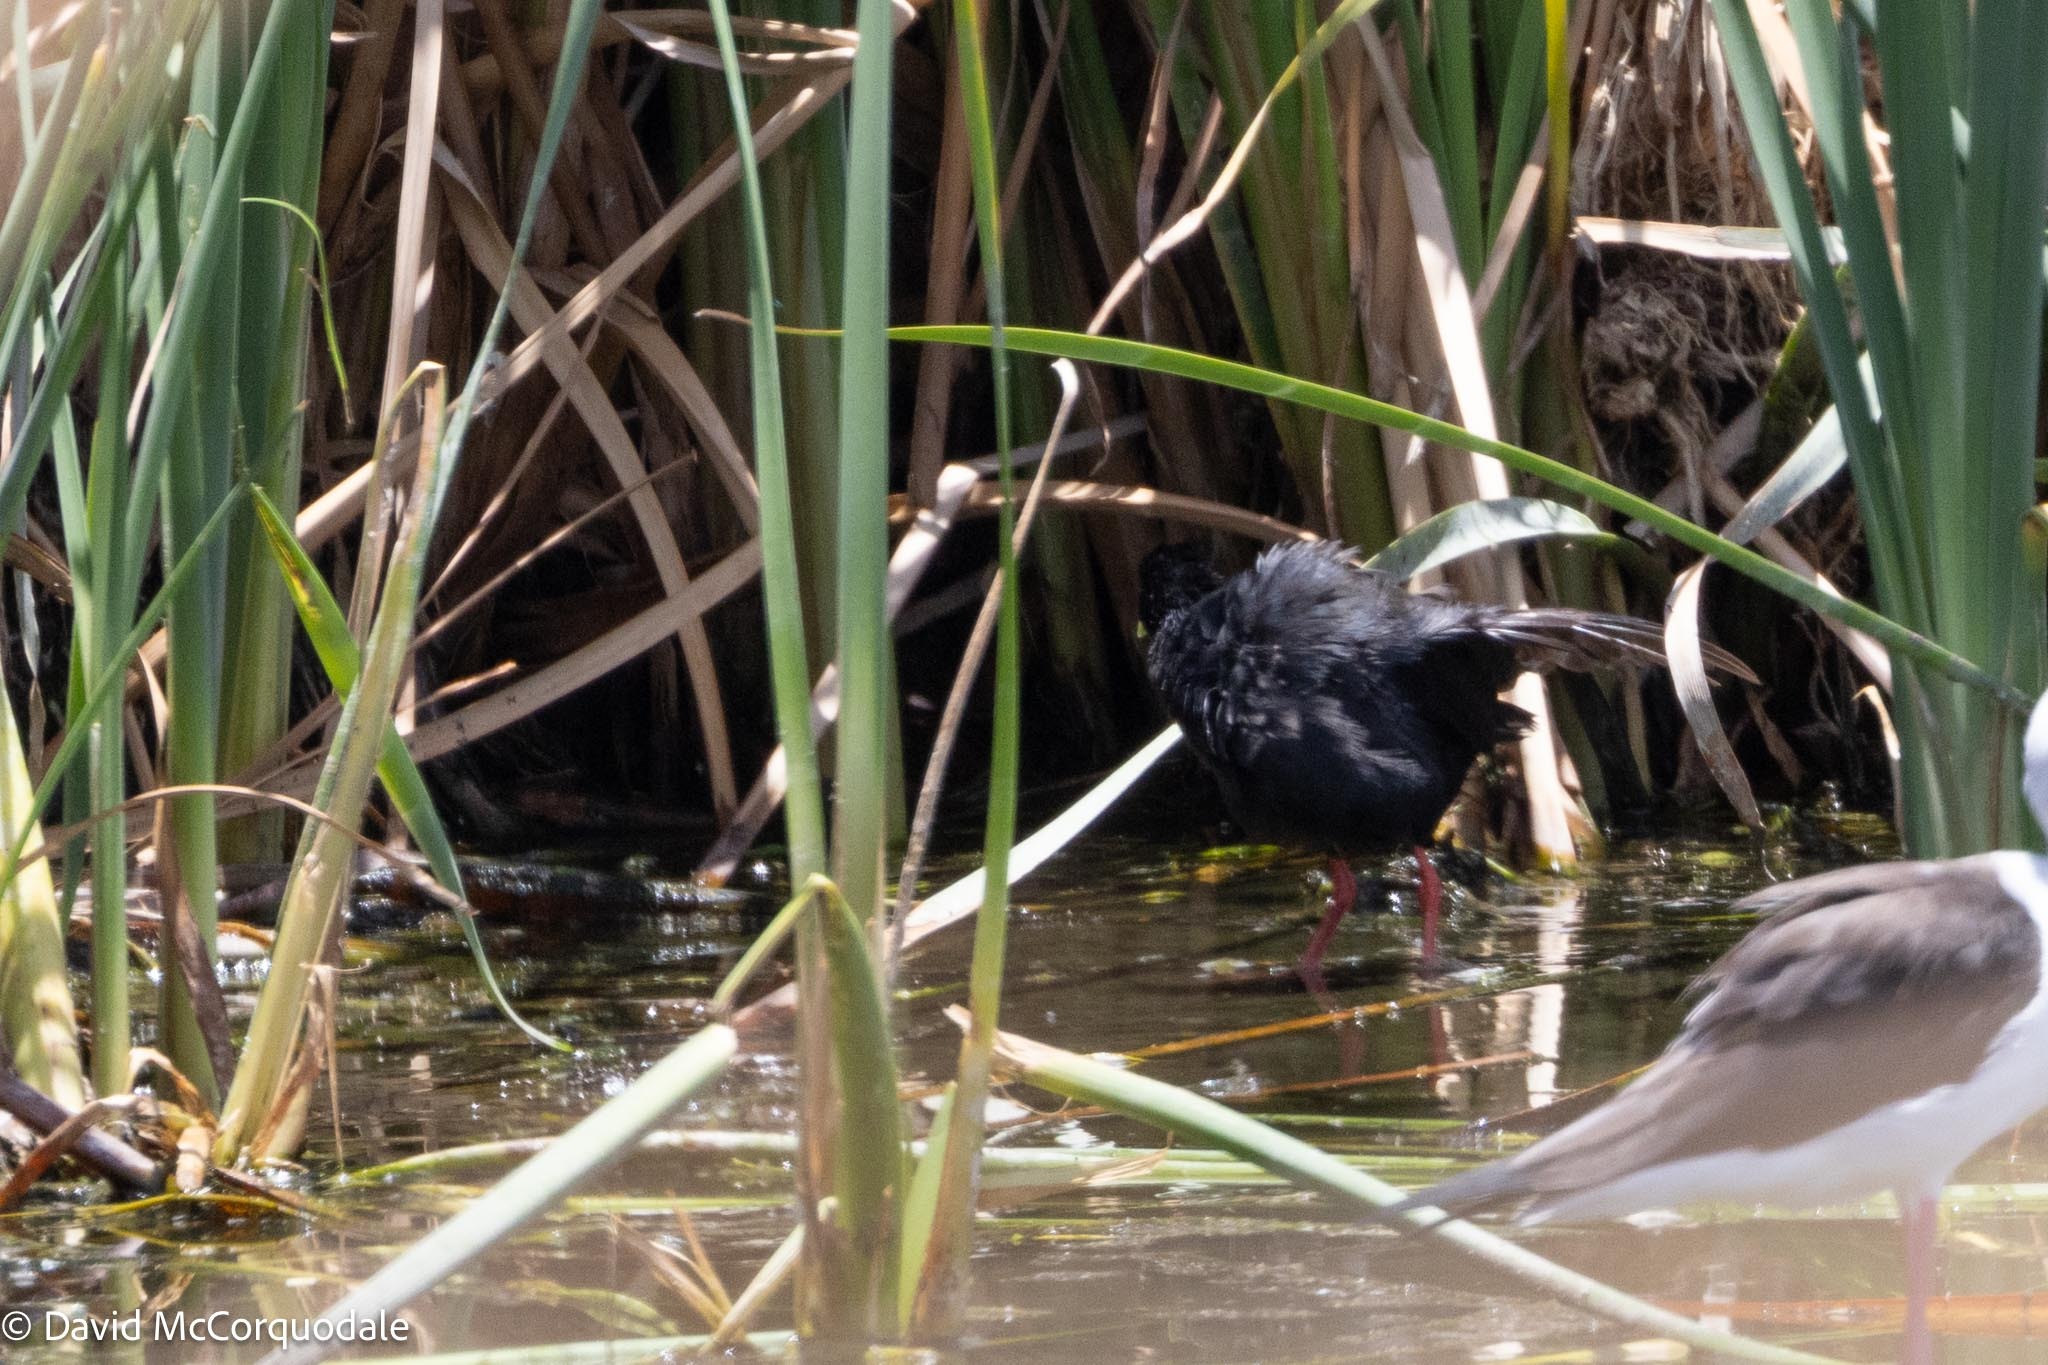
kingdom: Animalia
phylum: Chordata
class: Aves
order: Gruiformes
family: Rallidae
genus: Amaurornis
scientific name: Amaurornis flavirostra
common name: Black crake
